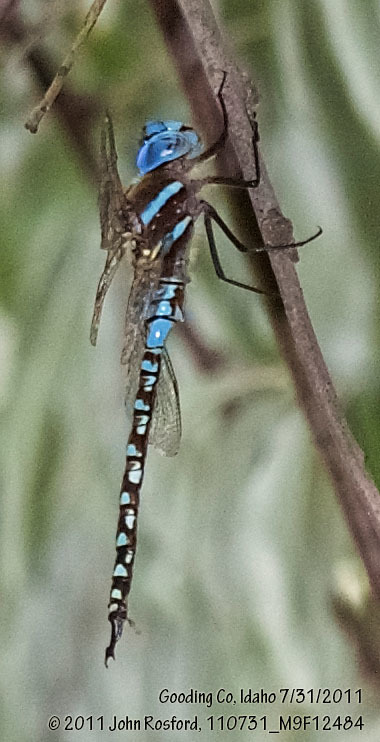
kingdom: Animalia
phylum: Arthropoda
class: Insecta
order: Odonata
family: Aeshnidae
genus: Rhionaeschna
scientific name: Rhionaeschna multicolor
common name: Blue-eyed darner
